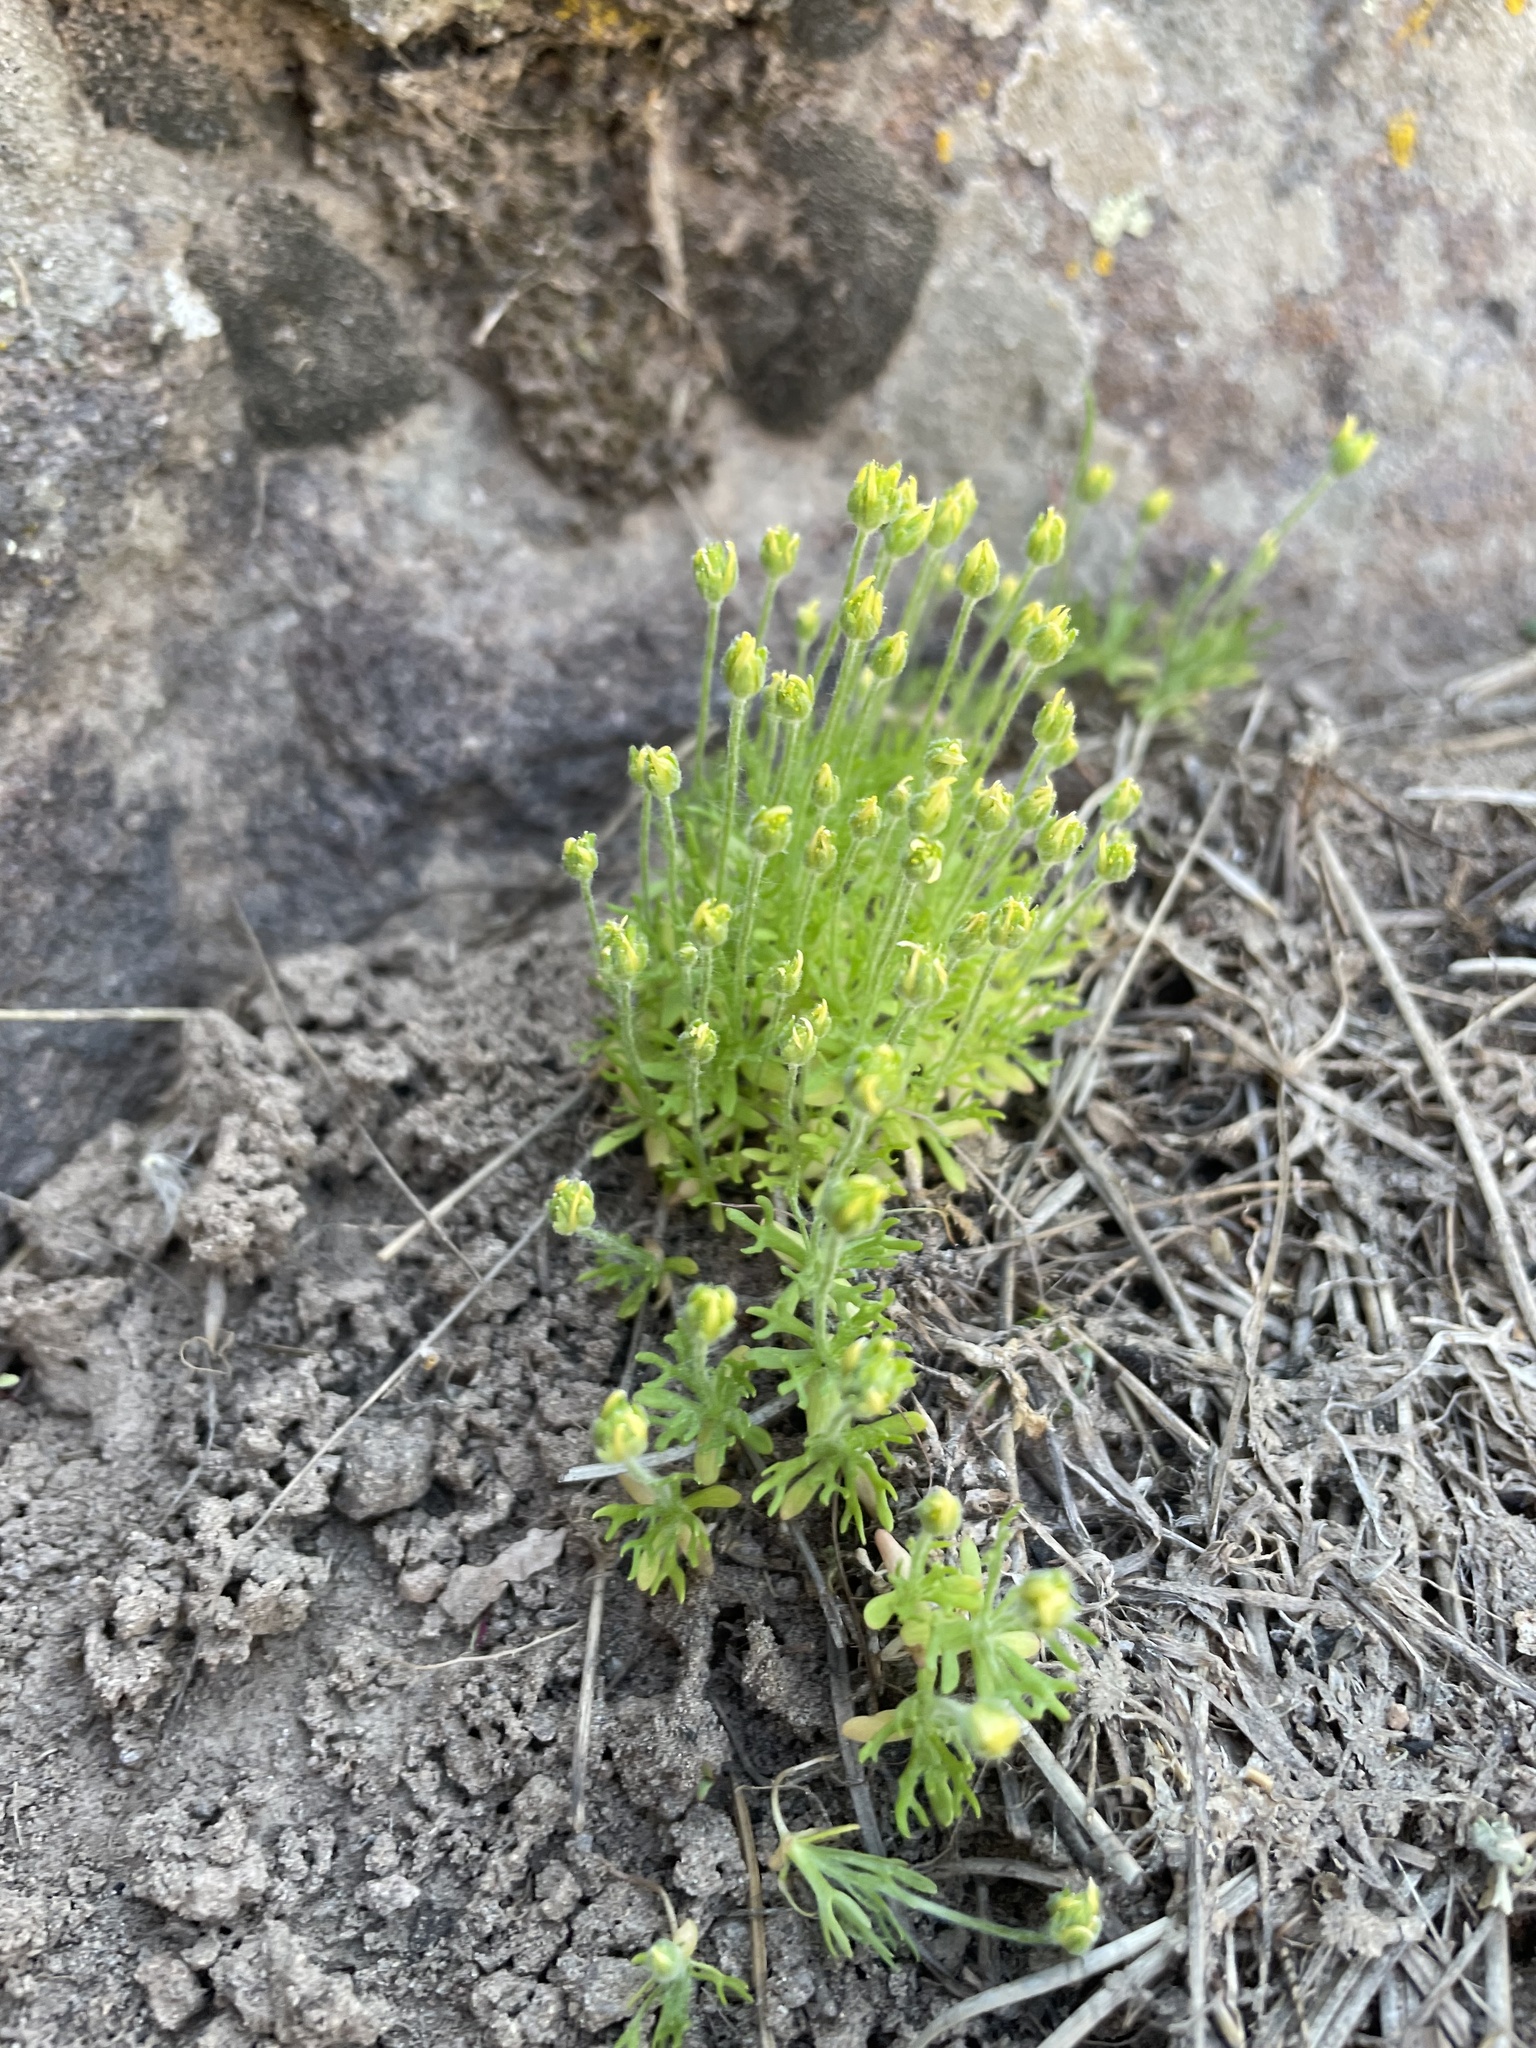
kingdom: Plantae
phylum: Tracheophyta
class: Magnoliopsida
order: Ranunculales
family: Ranunculaceae
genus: Ceratocephala
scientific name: Ceratocephala orthoceras
